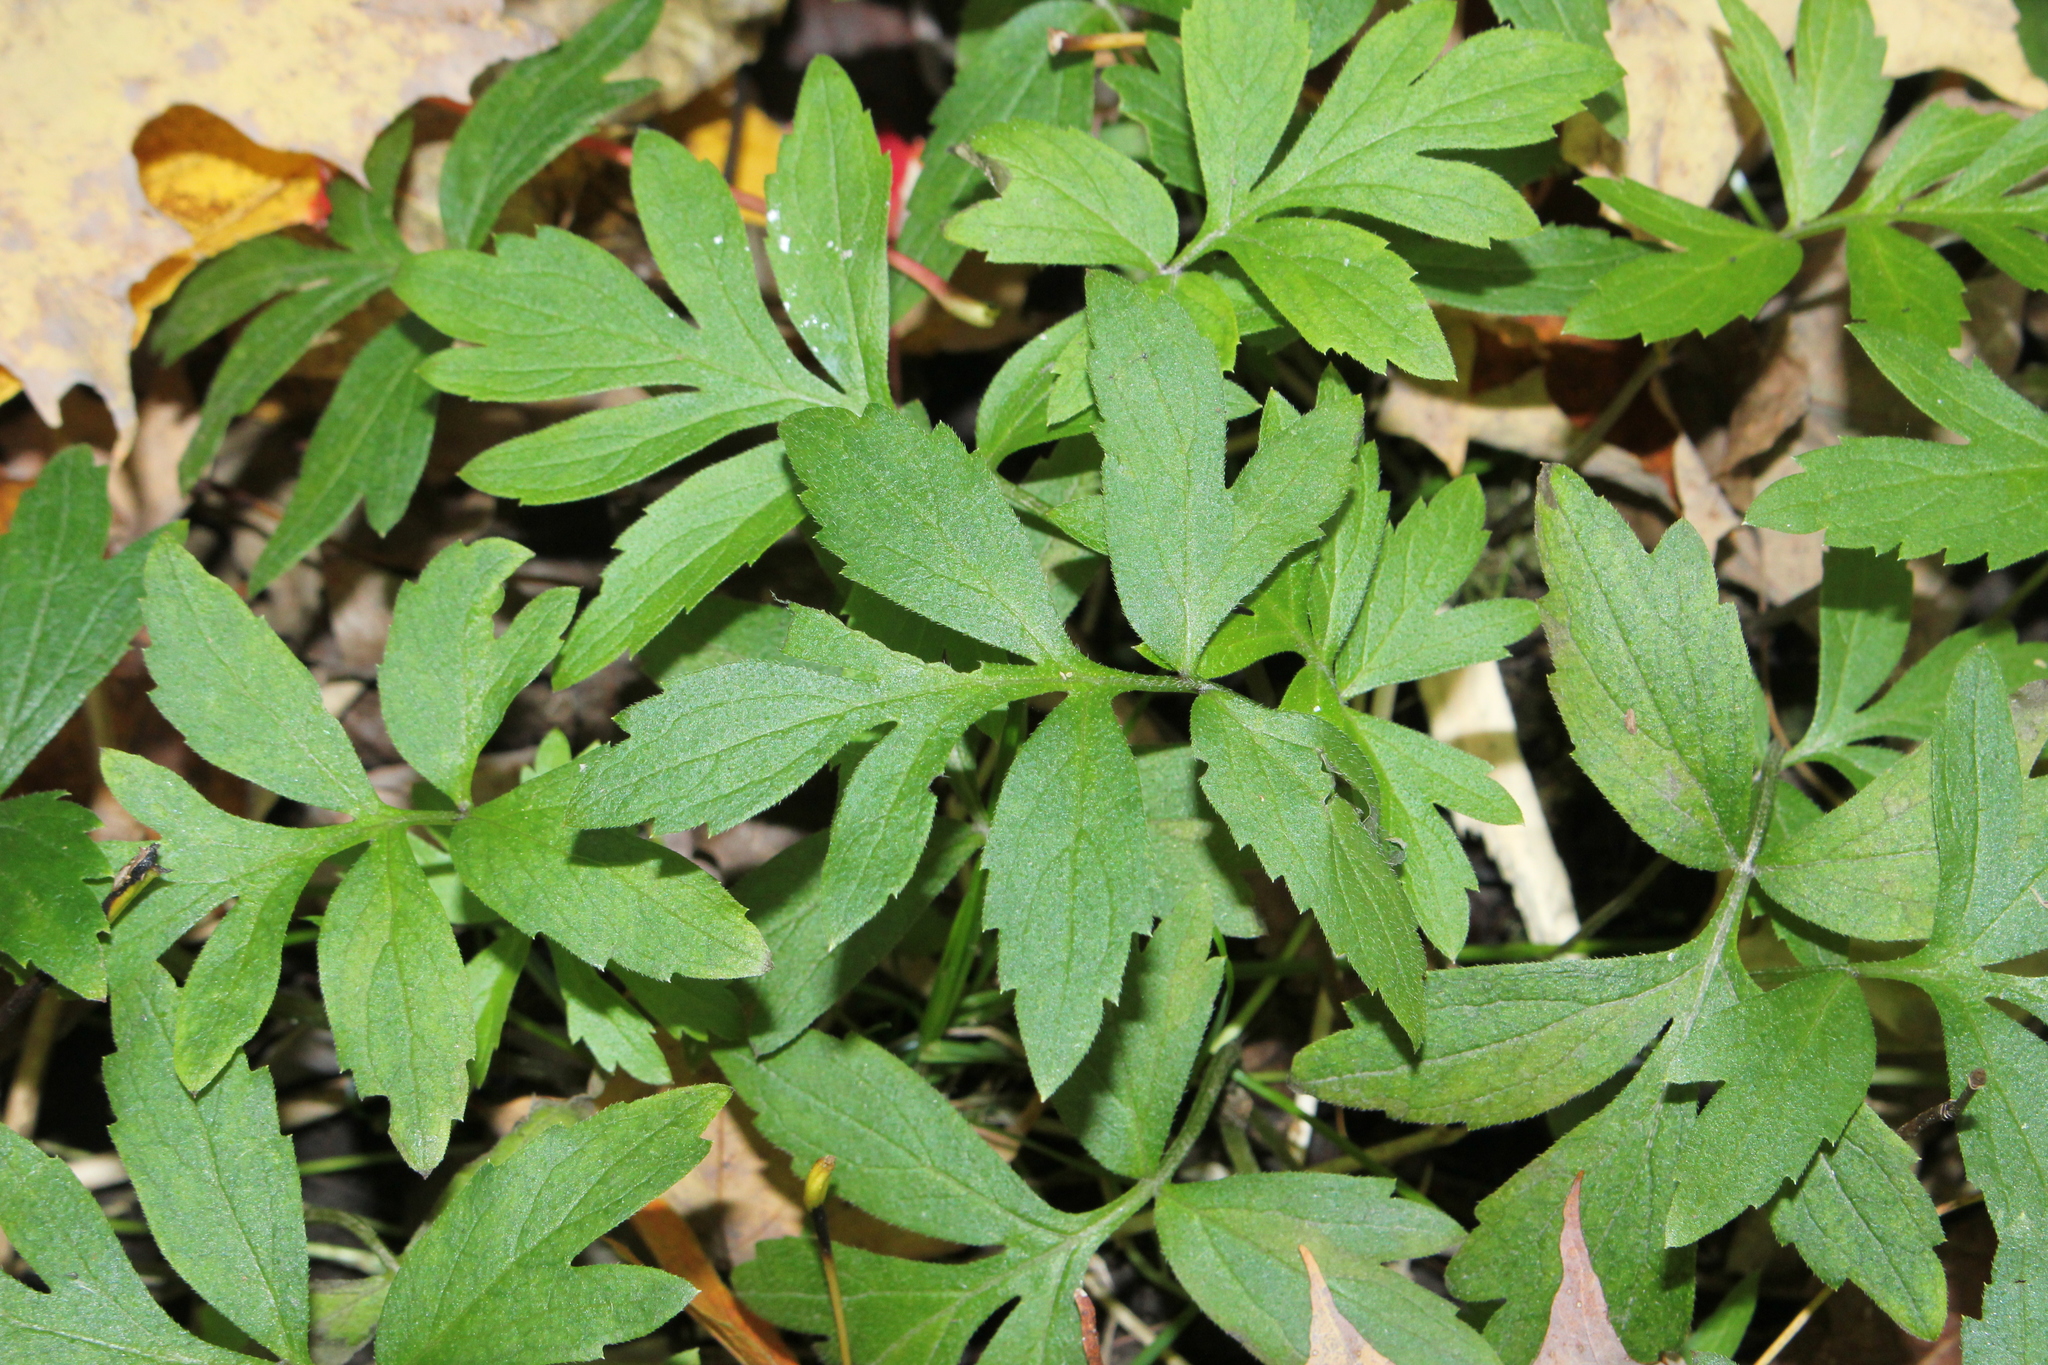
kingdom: Plantae
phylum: Tracheophyta
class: Magnoliopsida
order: Boraginales
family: Hydrophyllaceae
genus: Hydrophyllum
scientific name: Hydrophyllum virginianum
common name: Virginia waterleaf
